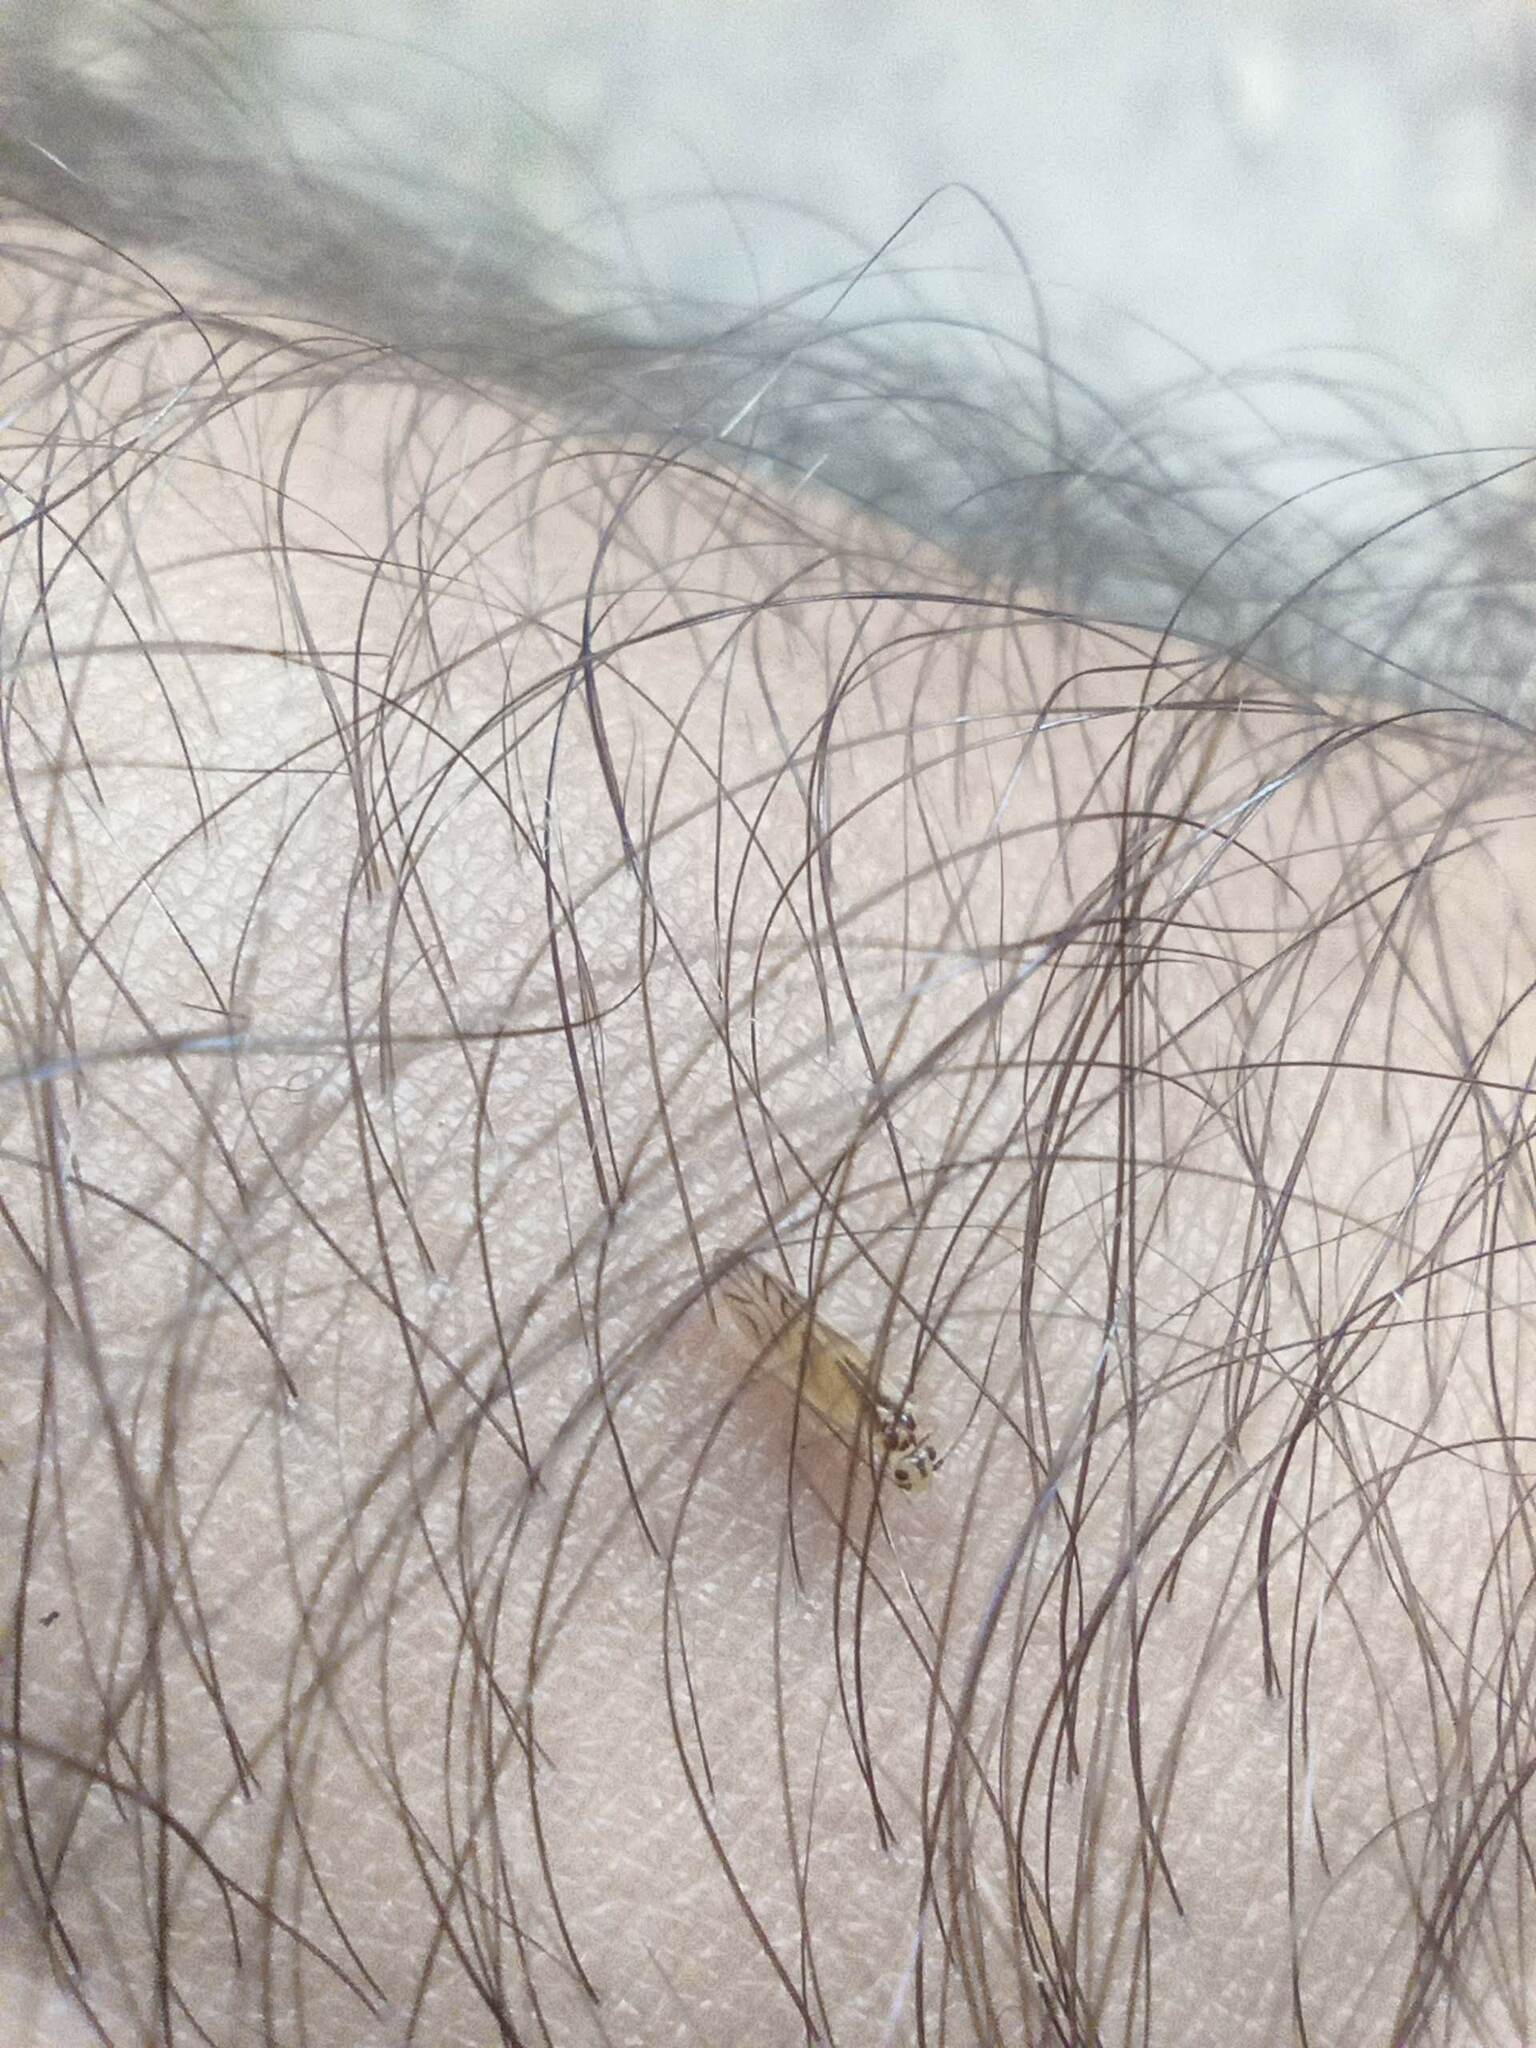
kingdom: Animalia
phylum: Arthropoda
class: Insecta
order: Psocodea
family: Caeciliusidae
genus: Valenzuela
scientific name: Valenzuela flavidus
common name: Yellow barklouse
